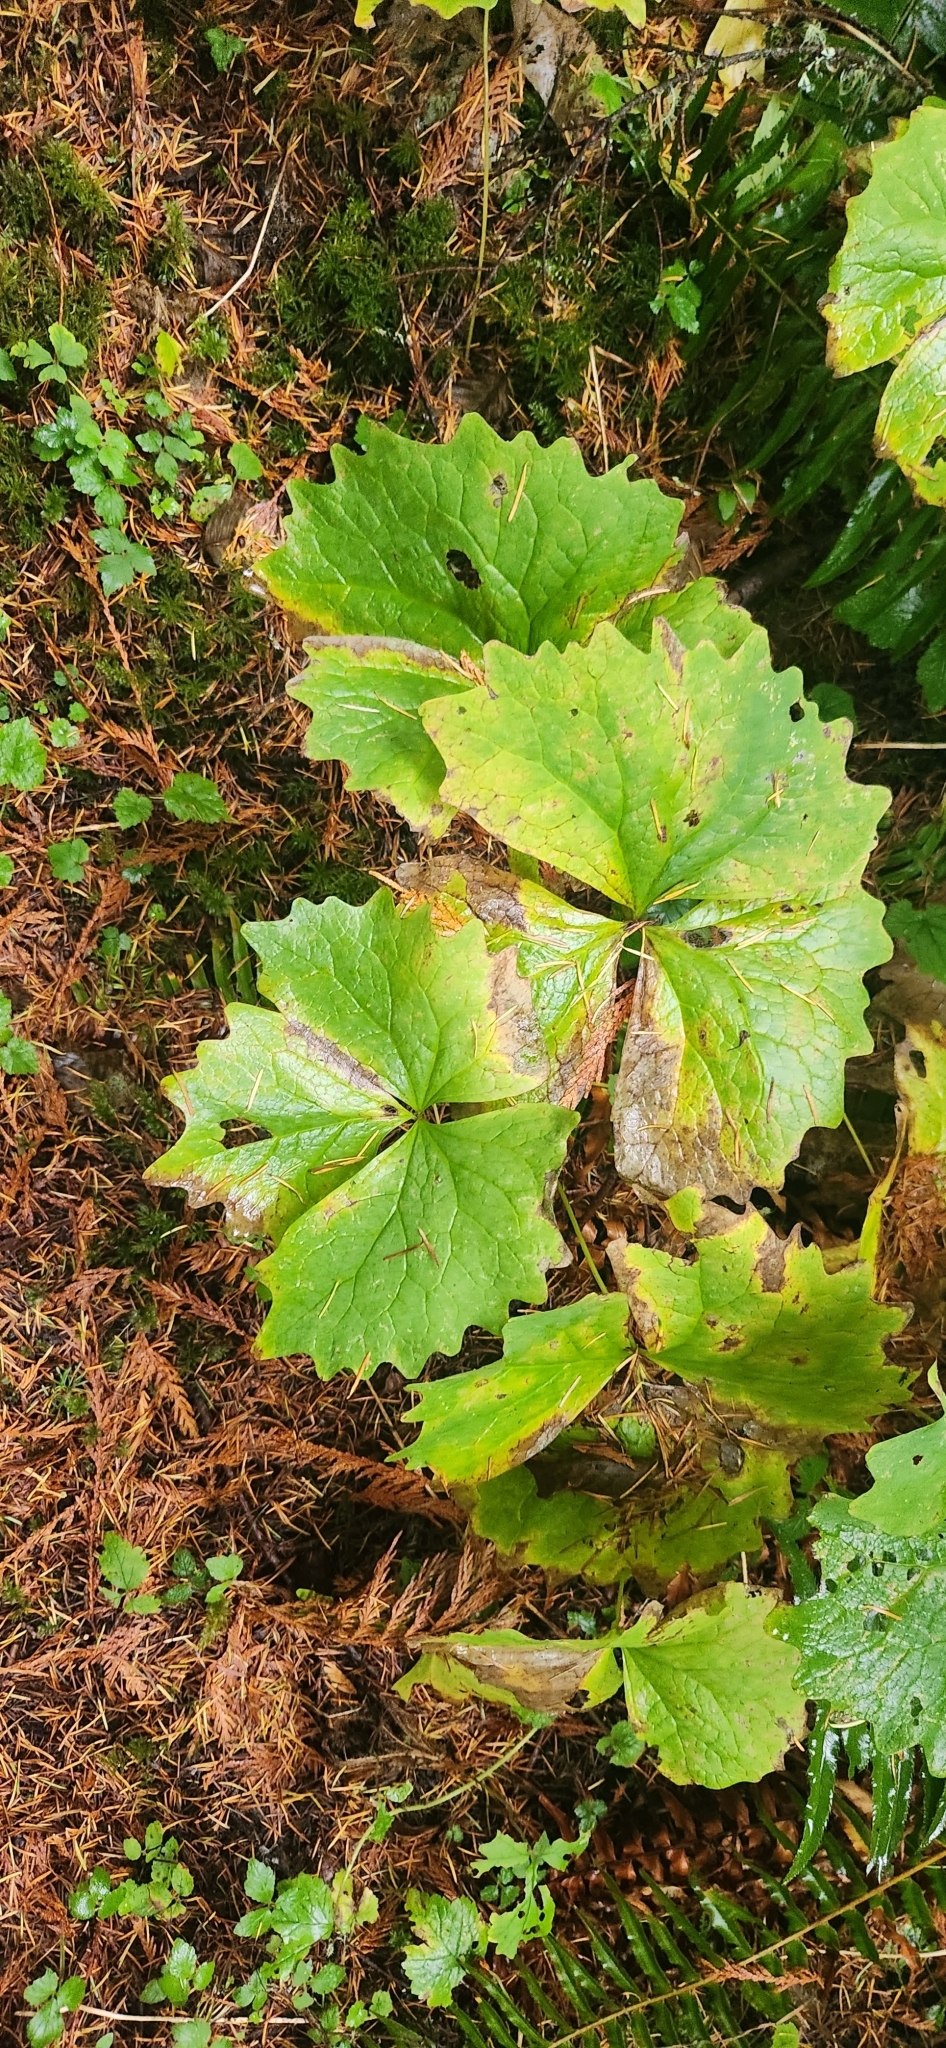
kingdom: Plantae
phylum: Tracheophyta
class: Magnoliopsida
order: Ranunculales
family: Berberidaceae
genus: Achlys
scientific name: Achlys triphylla
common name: Vanilla-leaf
